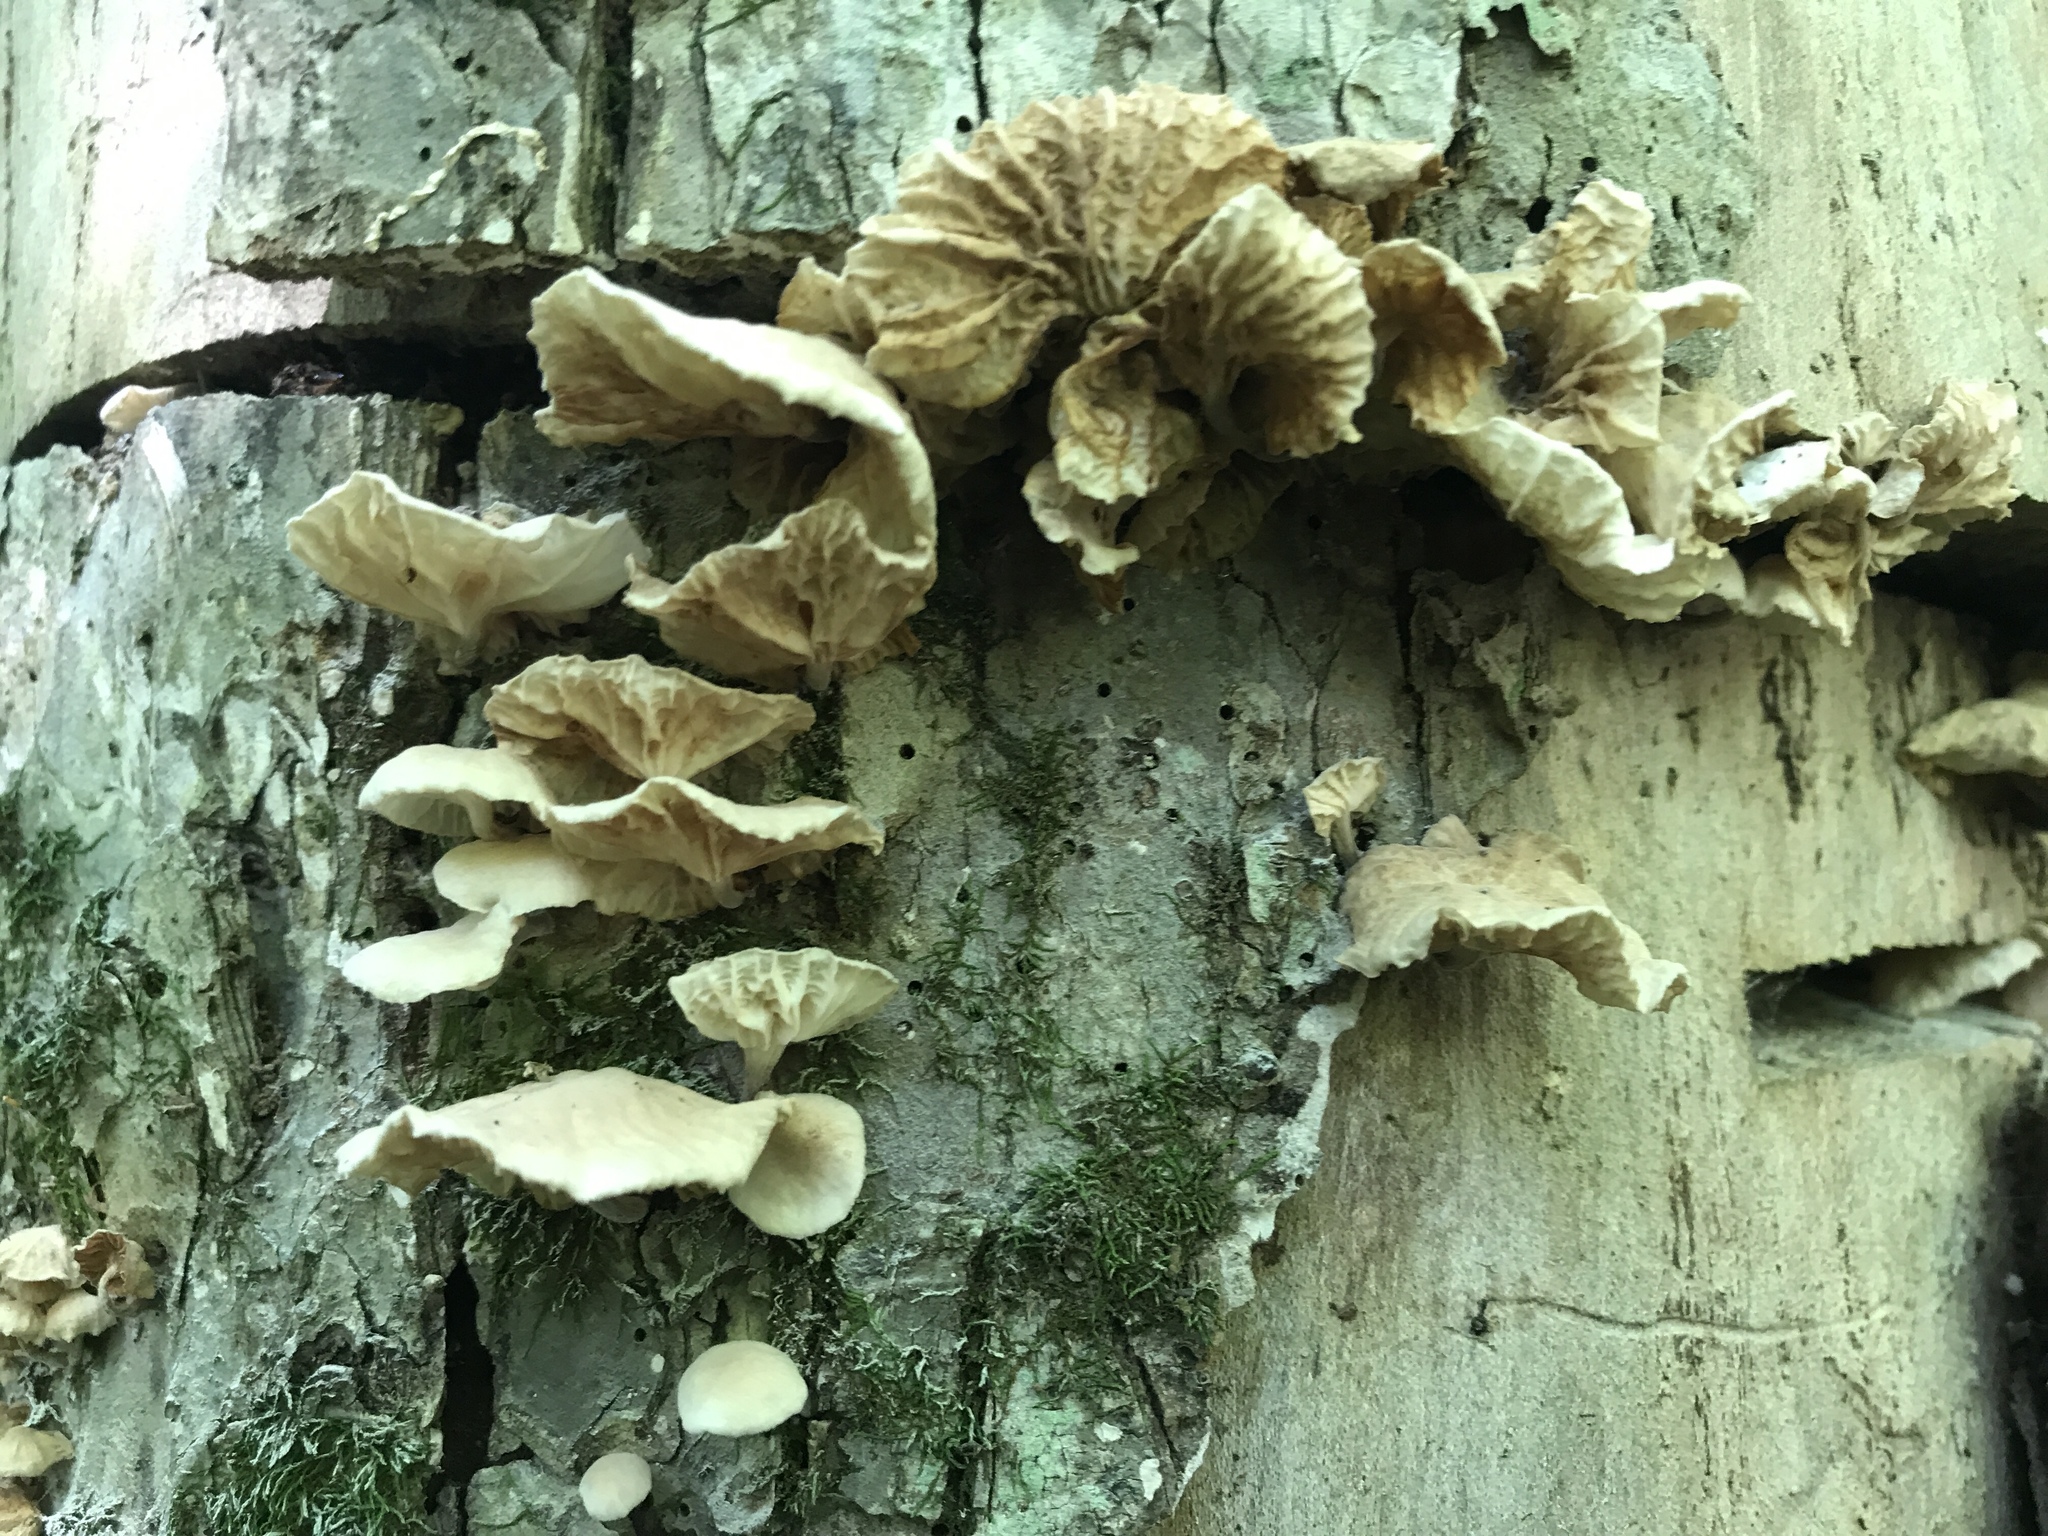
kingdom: Fungi
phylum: Basidiomycota
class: Agaricomycetes
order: Agaricales
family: Omphalotaceae
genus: Marasmiellus
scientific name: Marasmiellus candidus
